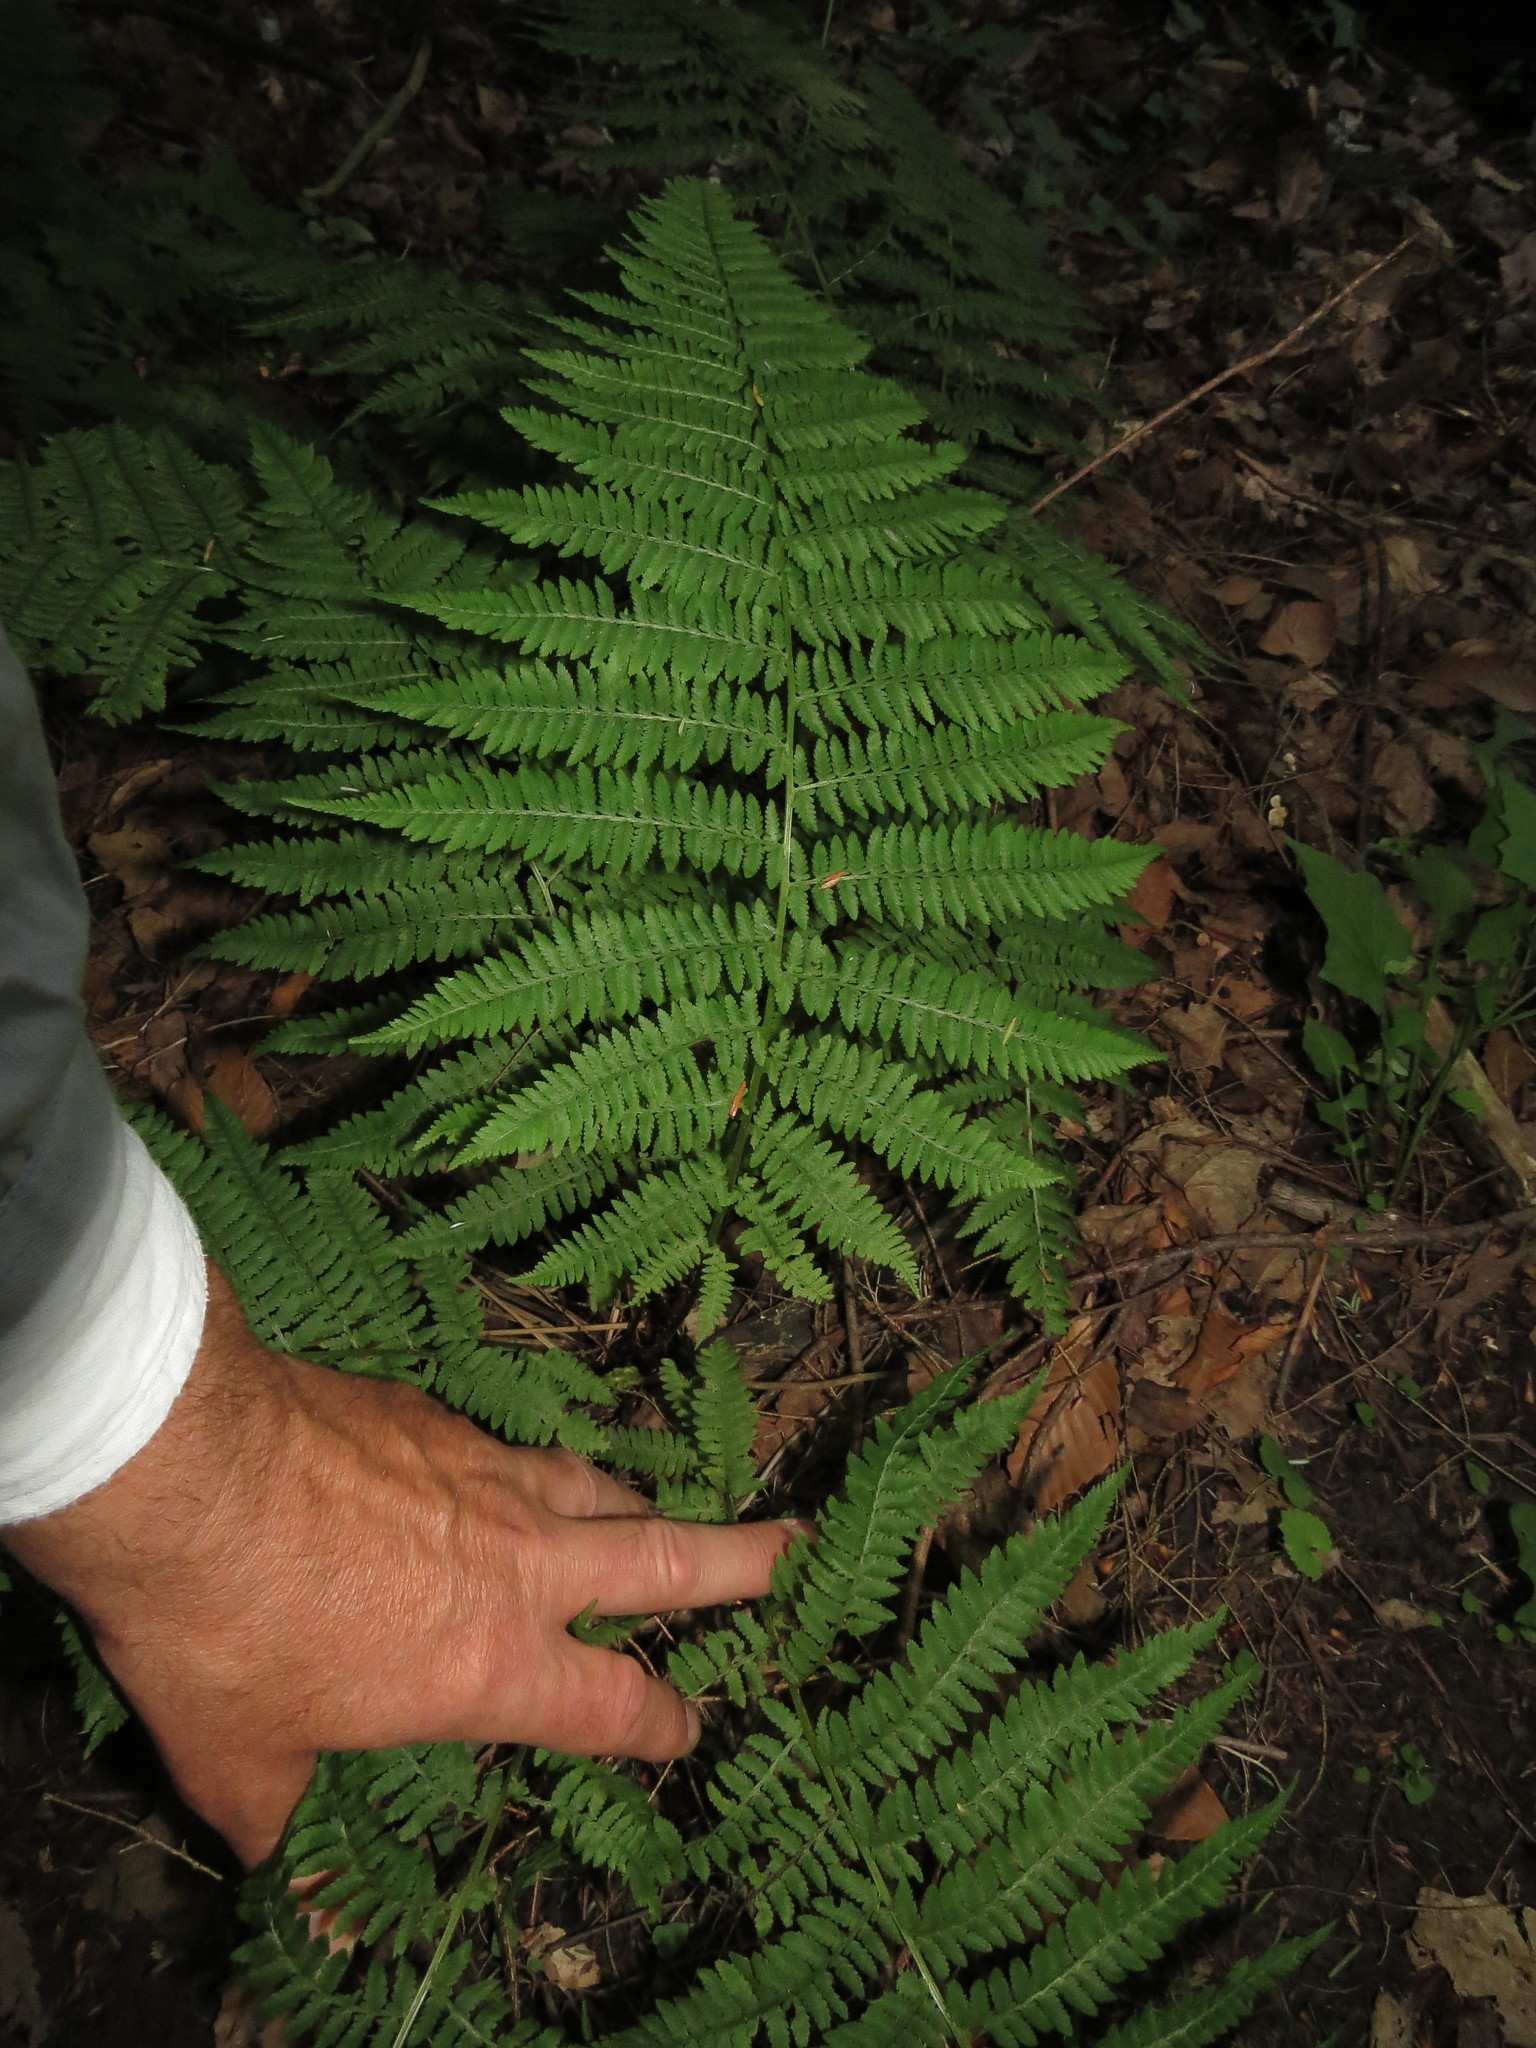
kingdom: Plantae
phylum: Tracheophyta
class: Polypodiopsida
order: Polypodiales
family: Athyriaceae
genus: Athyrium
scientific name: Athyrium angustum
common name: Northern lady fern
